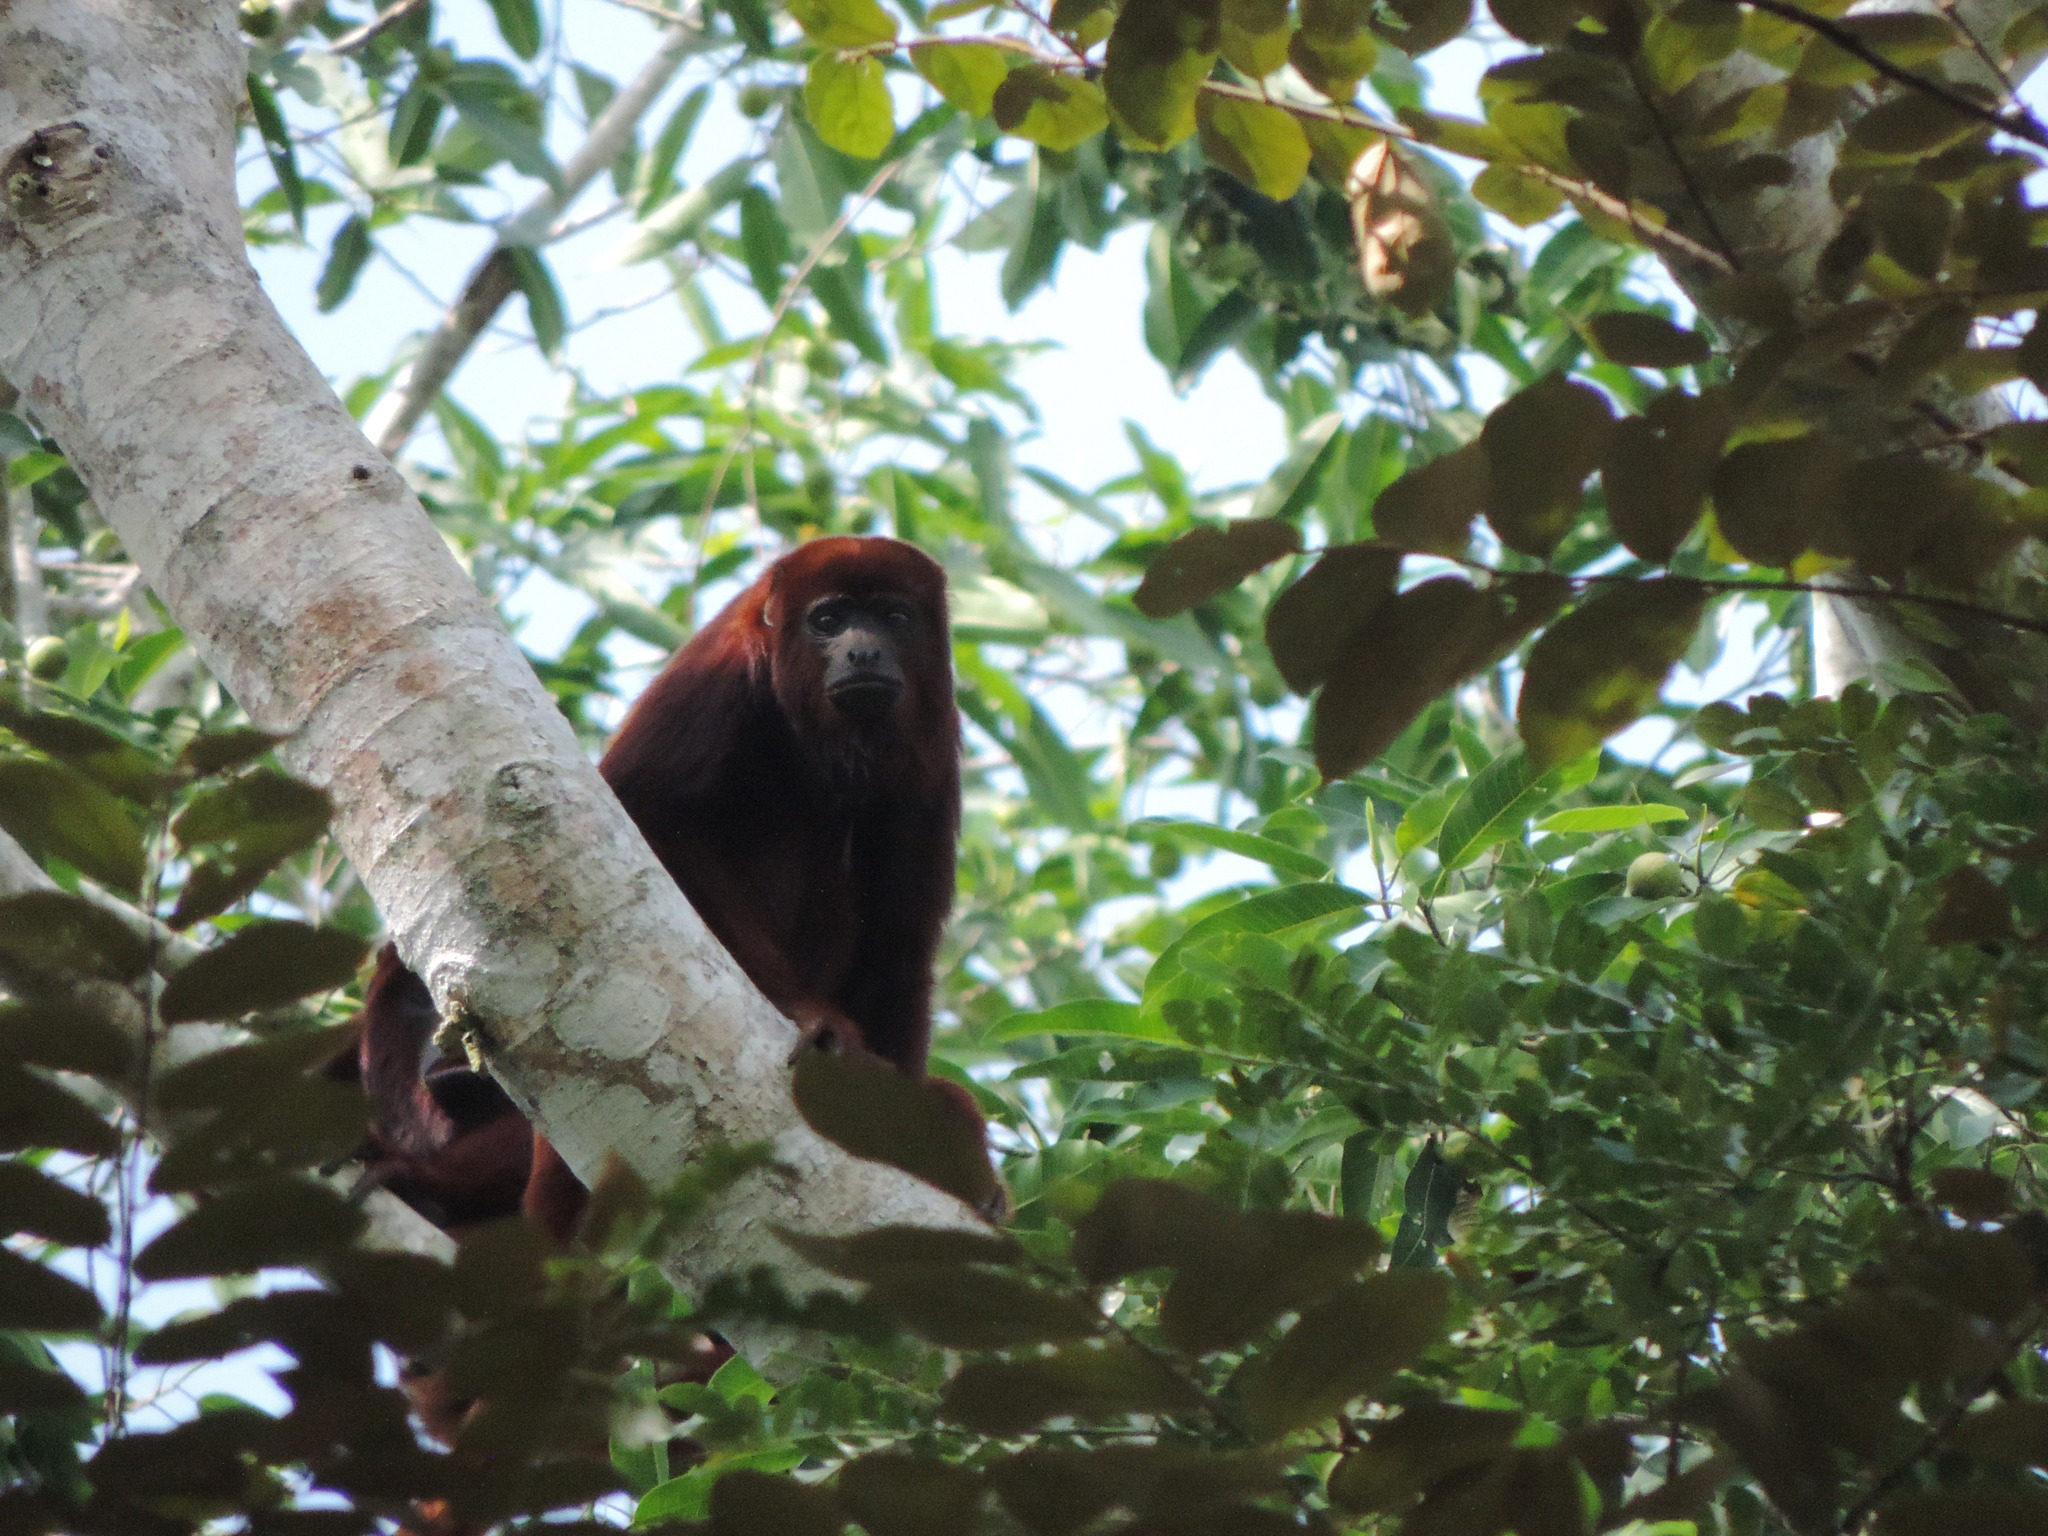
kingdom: Animalia
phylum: Chordata
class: Mammalia
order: Primates
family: Atelidae
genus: Alouatta
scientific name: Alouatta seniculus
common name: Venezuelan red howler
